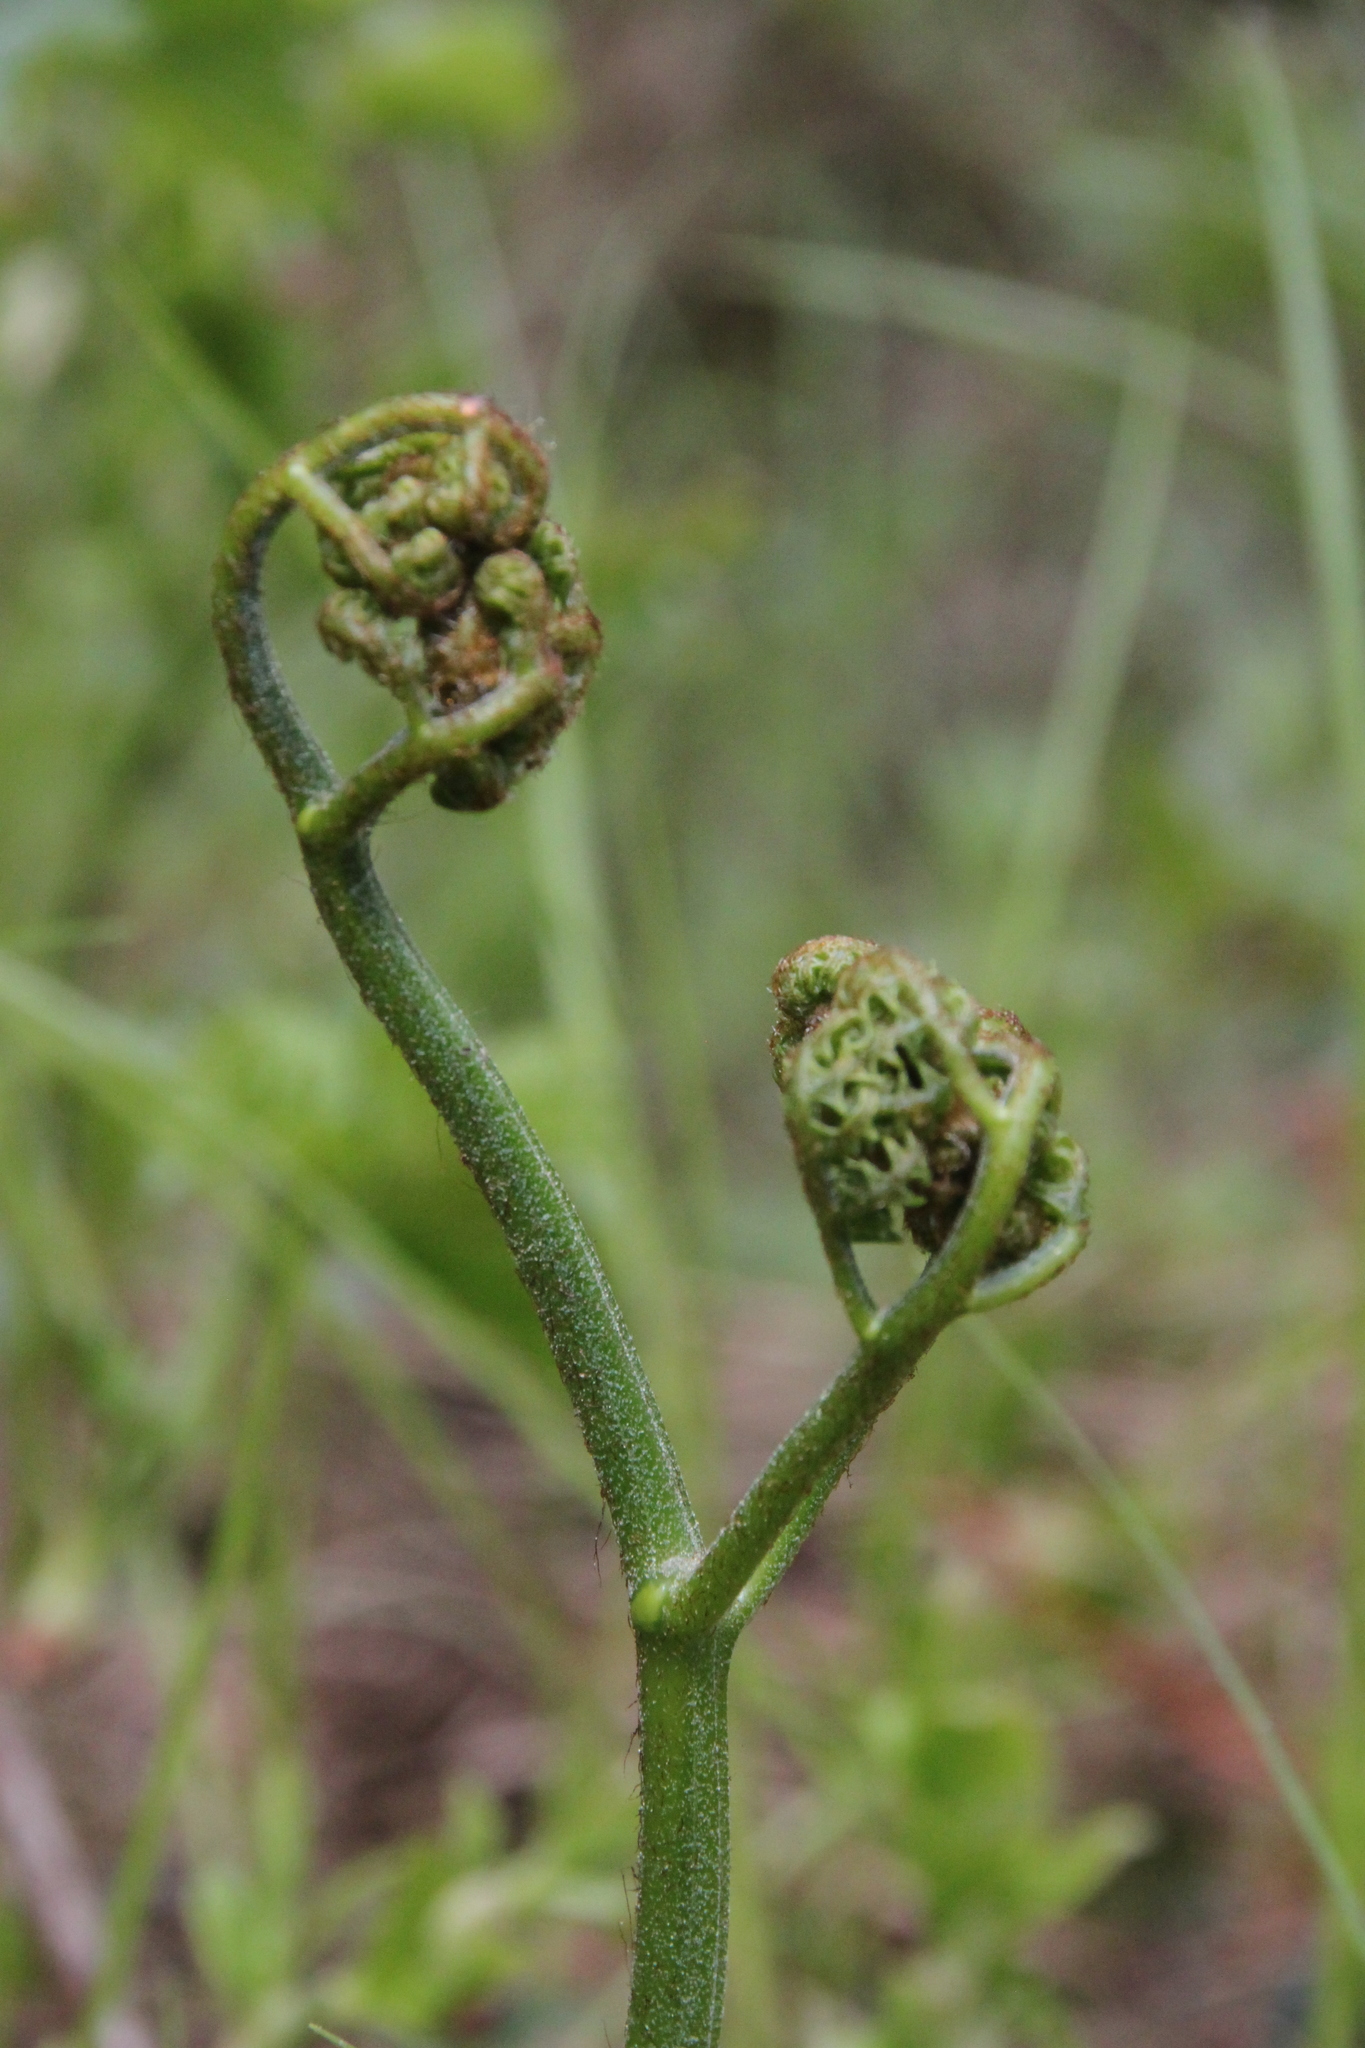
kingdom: Plantae
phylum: Tracheophyta
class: Polypodiopsida
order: Polypodiales
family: Dennstaedtiaceae
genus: Pteridium
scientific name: Pteridium aquilinum
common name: Bracken
